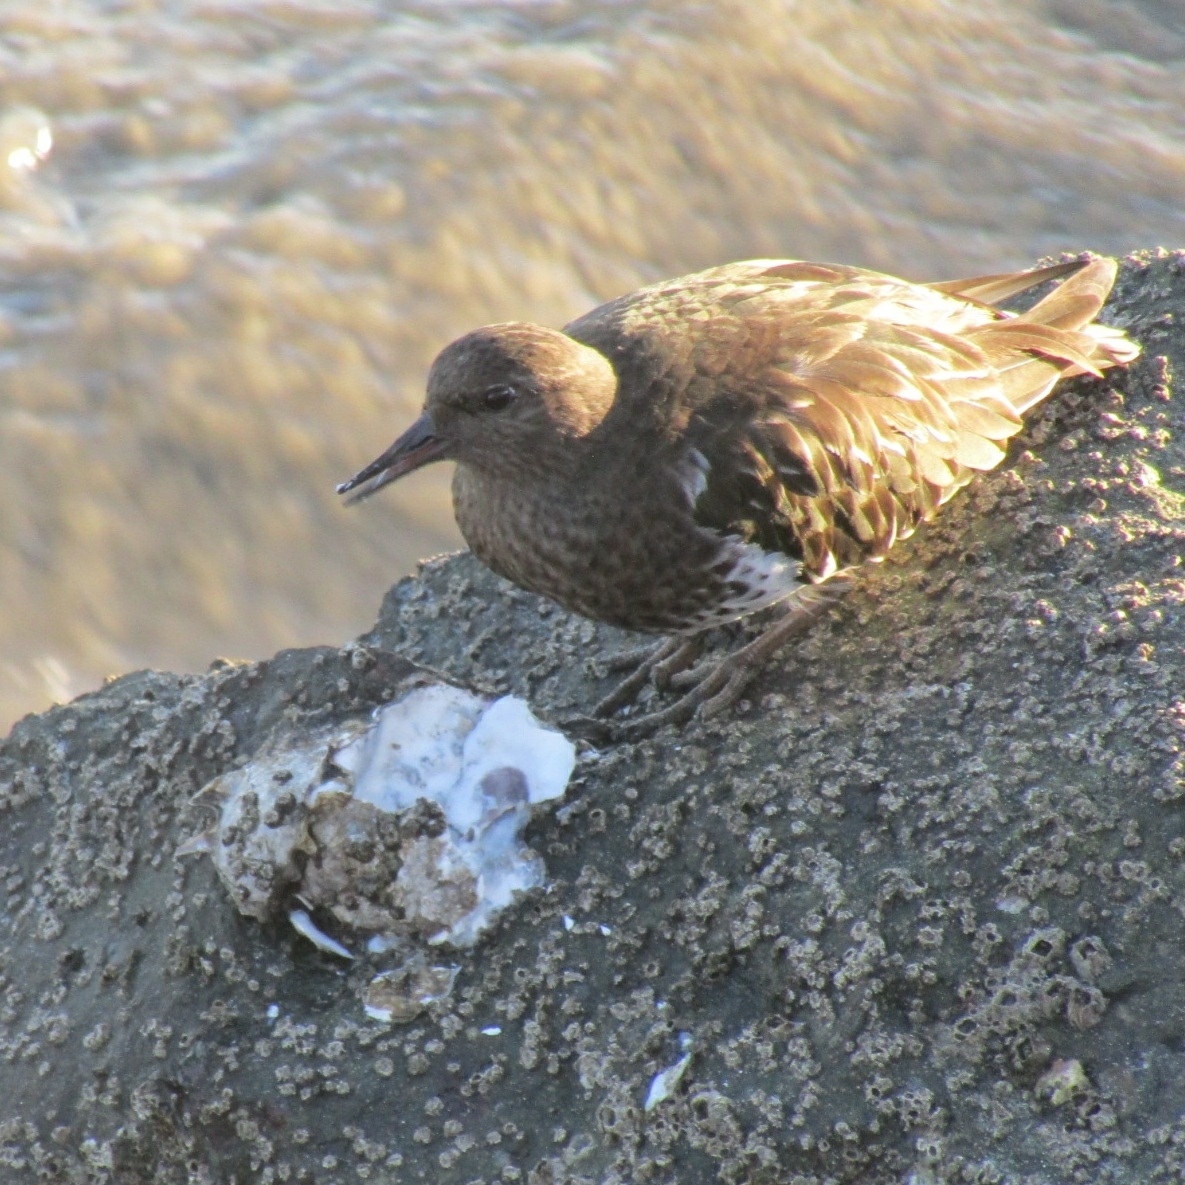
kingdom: Animalia
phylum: Chordata
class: Aves
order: Charadriiformes
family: Scolopacidae
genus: Arenaria
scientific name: Arenaria melanocephala
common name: Black turnstone
